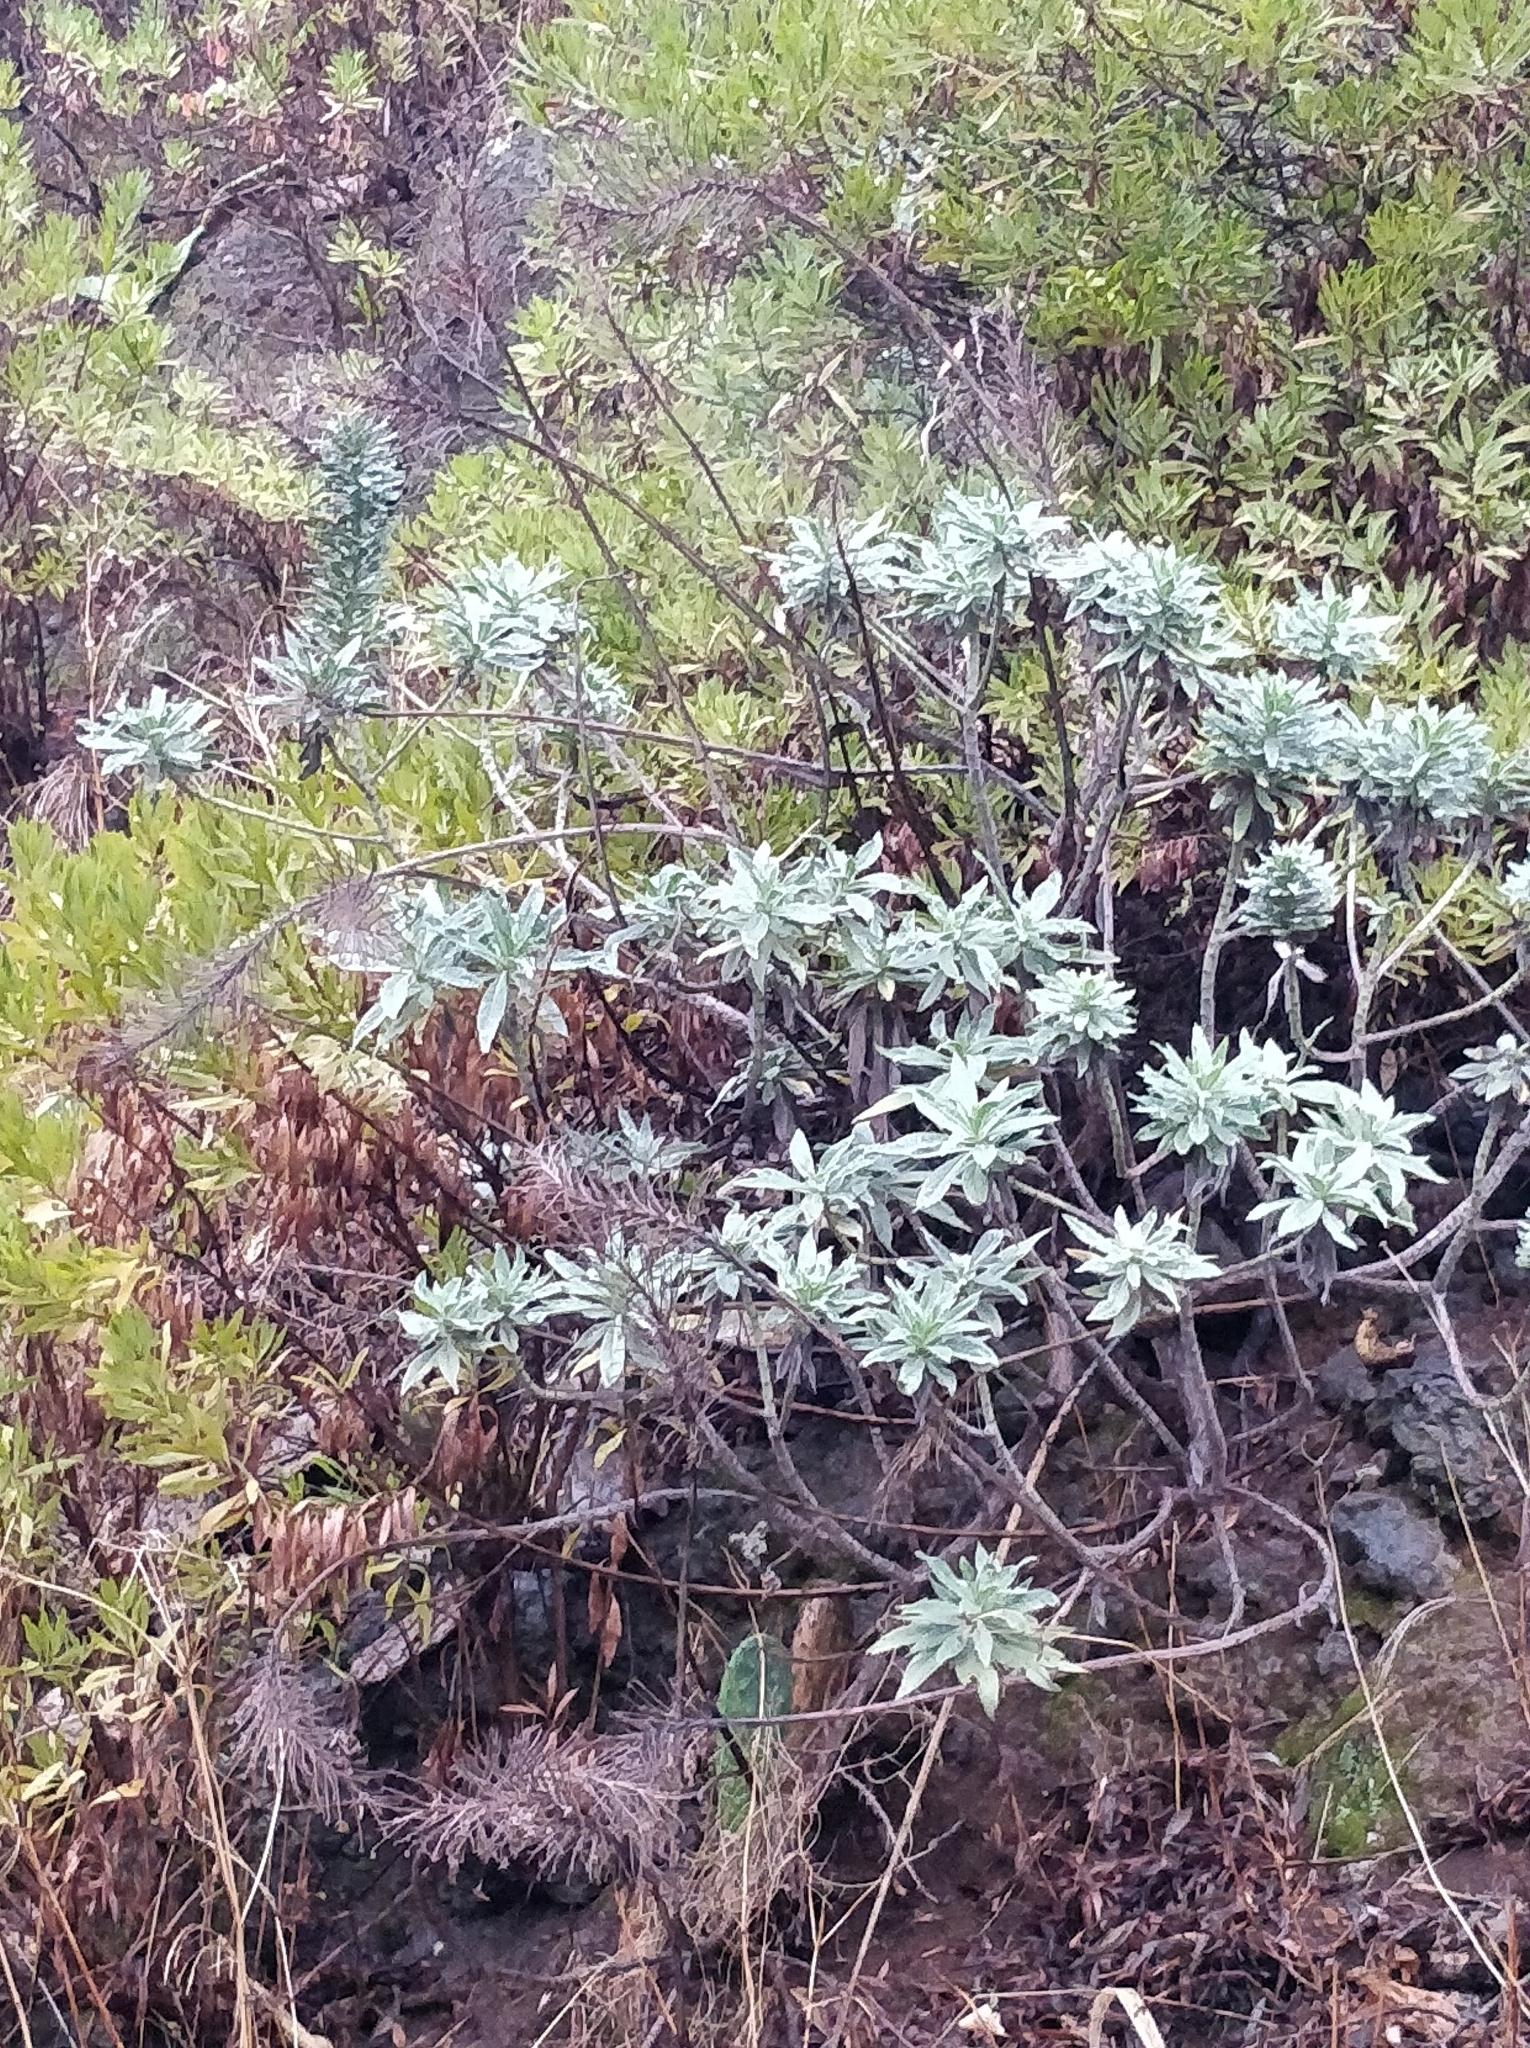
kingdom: Plantae
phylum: Tracheophyta
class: Magnoliopsida
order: Boraginales
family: Boraginaceae
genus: Echium
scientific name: Echium nervosum
